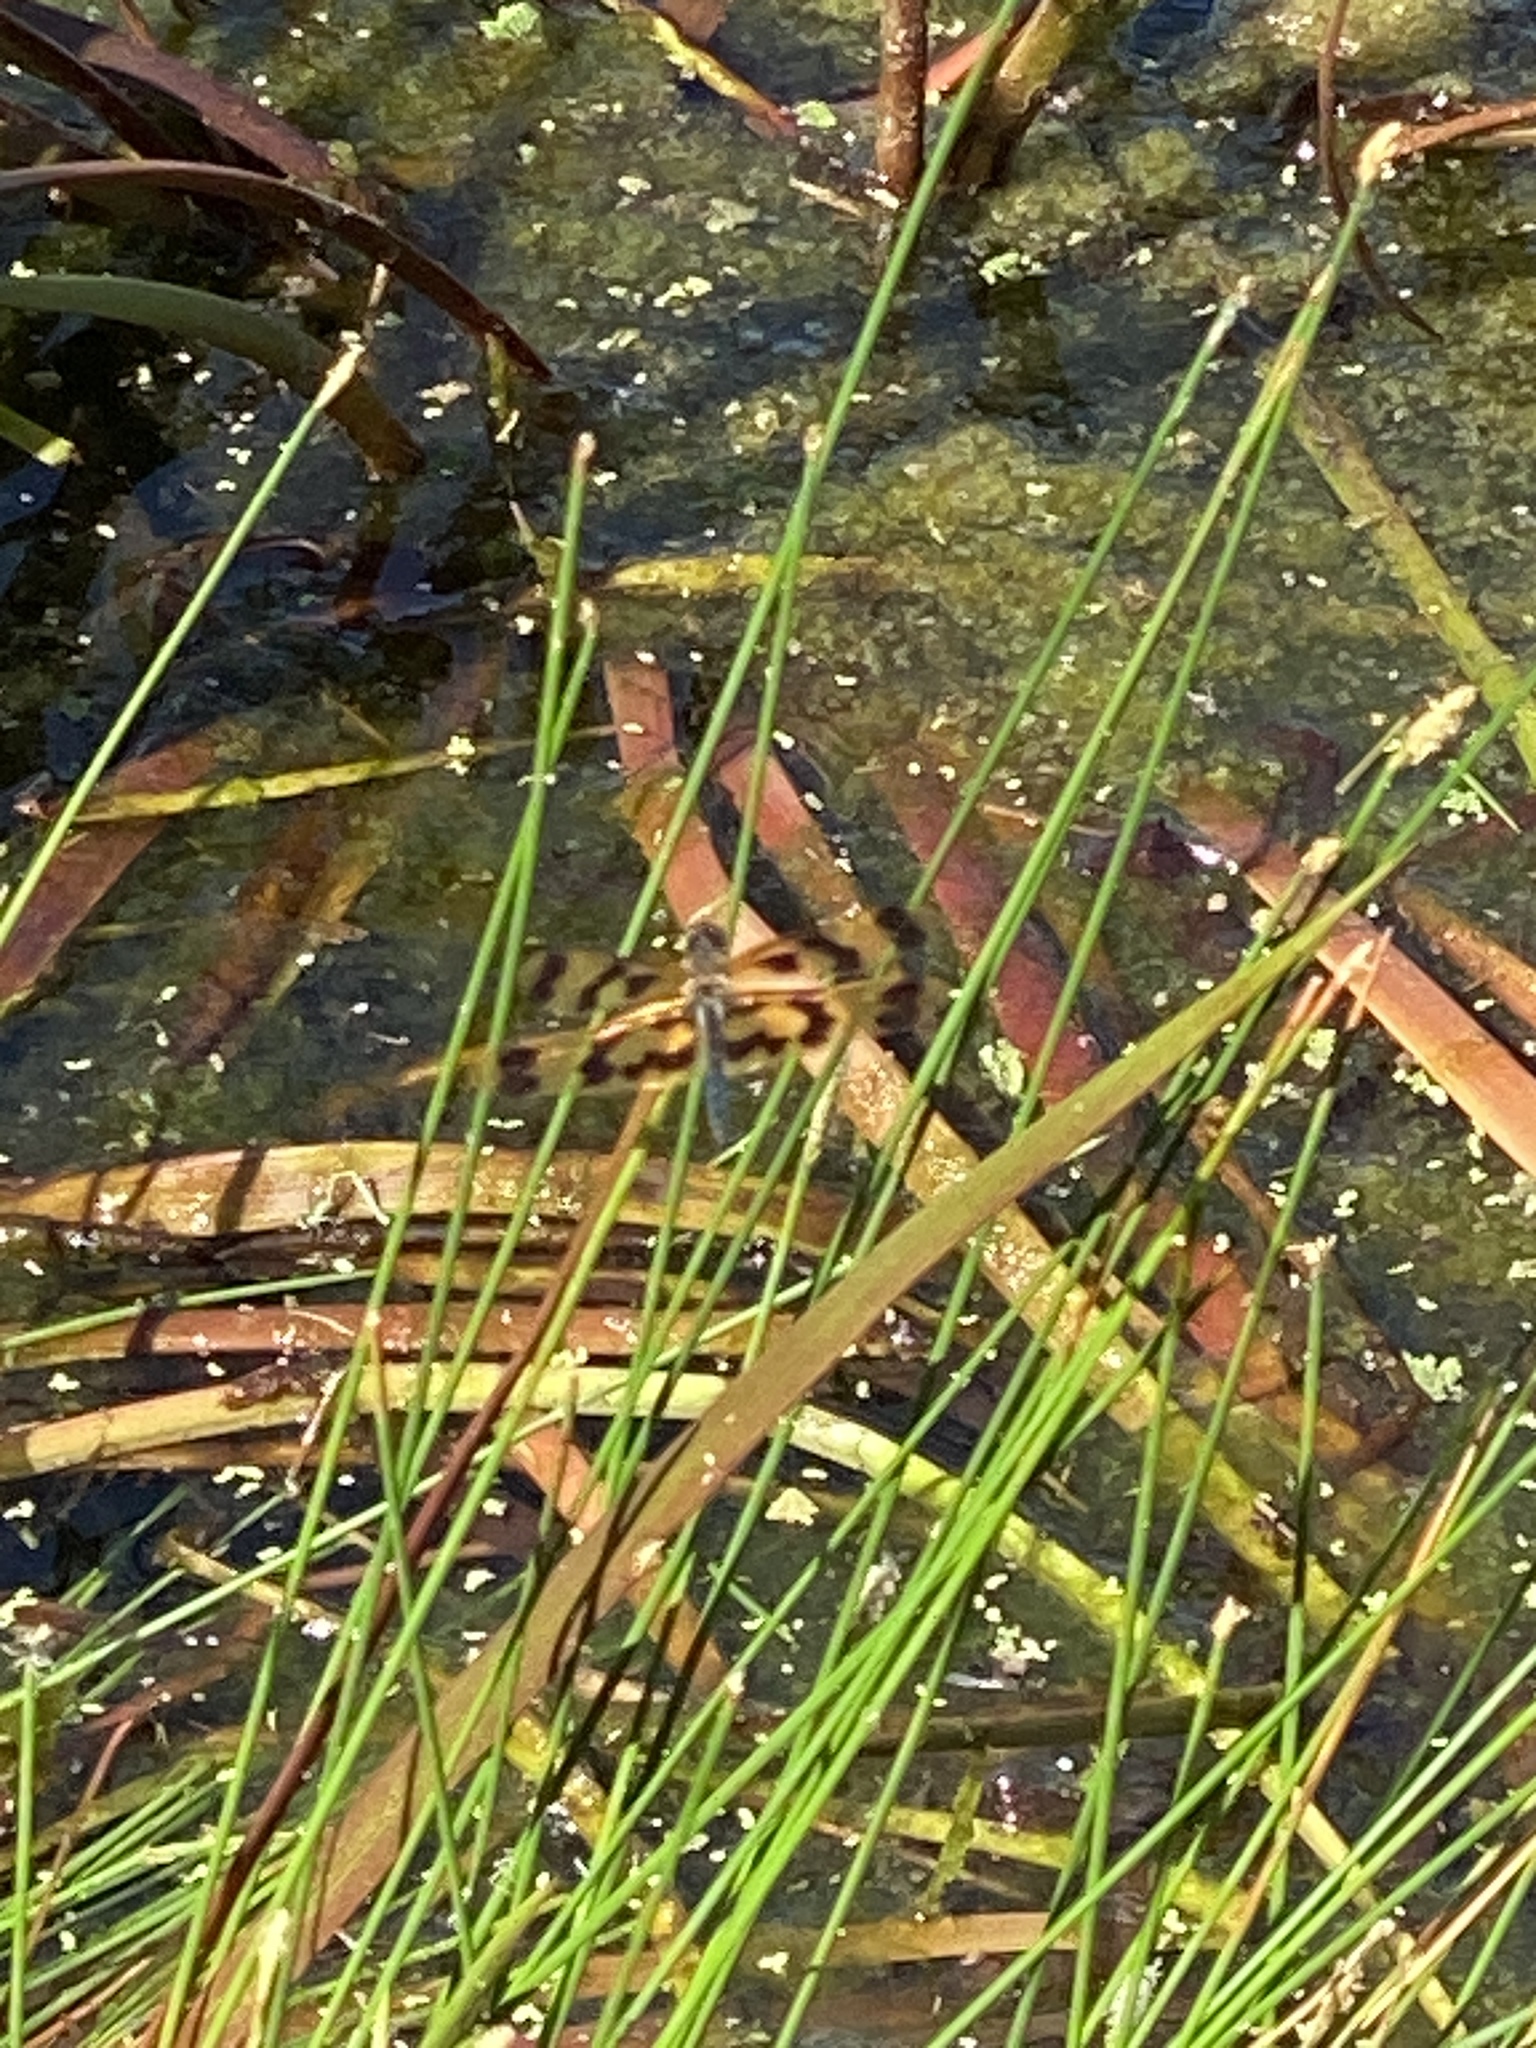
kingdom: Animalia
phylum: Arthropoda
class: Insecta
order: Odonata
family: Libellulidae
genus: Rhyothemis
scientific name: Rhyothemis graphiptera
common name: Graphic flutterer
